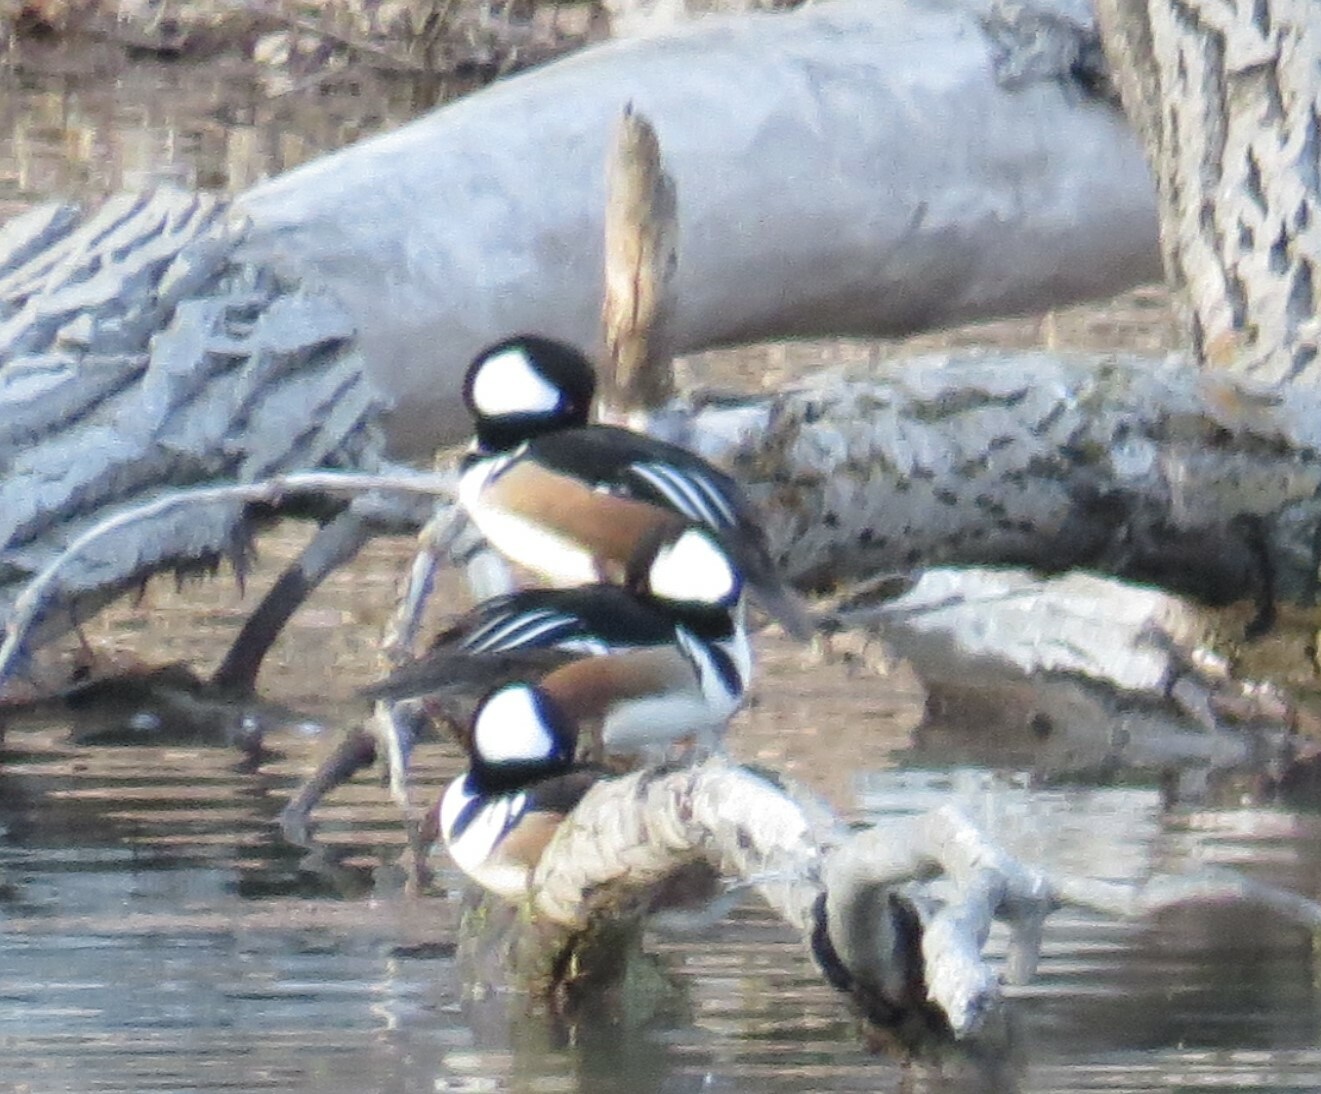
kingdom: Animalia
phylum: Chordata
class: Aves
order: Anseriformes
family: Anatidae
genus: Lophodytes
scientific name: Lophodytes cucullatus
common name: Hooded merganser
